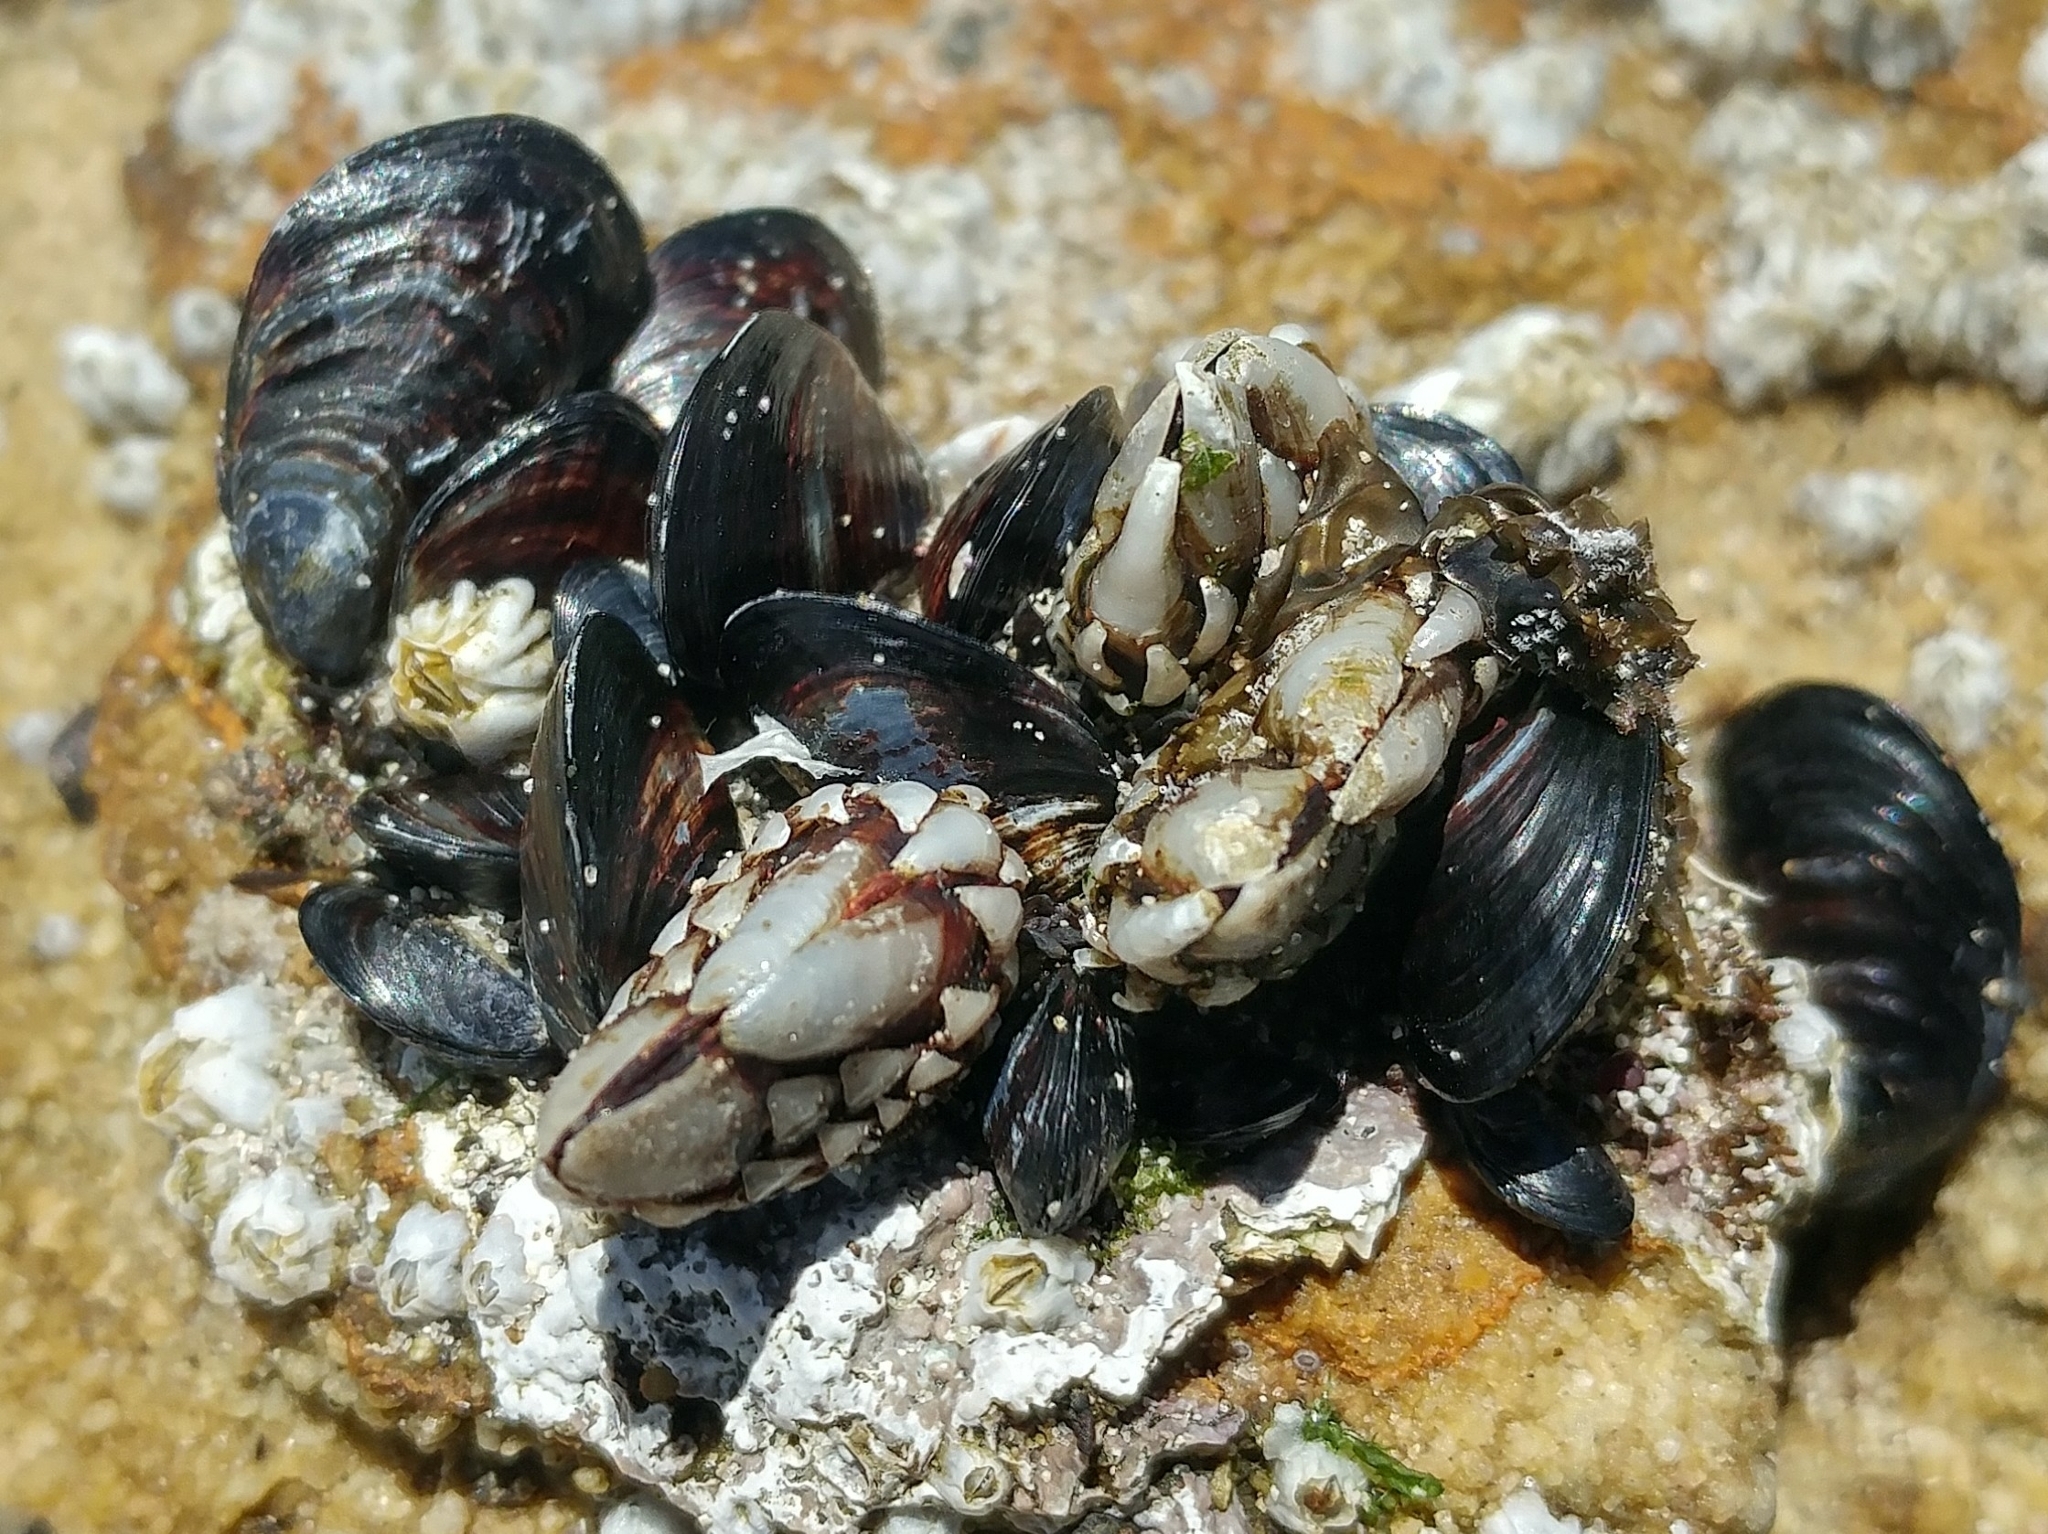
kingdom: Animalia
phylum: Mollusca
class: Bivalvia
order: Mytilida
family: Mytilidae
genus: Mytilus
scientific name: Mytilus californianus
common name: California mussel
